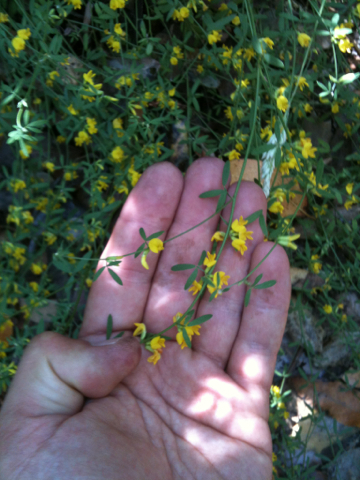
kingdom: Plantae
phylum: Tracheophyta
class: Magnoliopsida
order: Fabales
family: Fabaceae
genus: Acmispon
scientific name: Acmispon glaber
